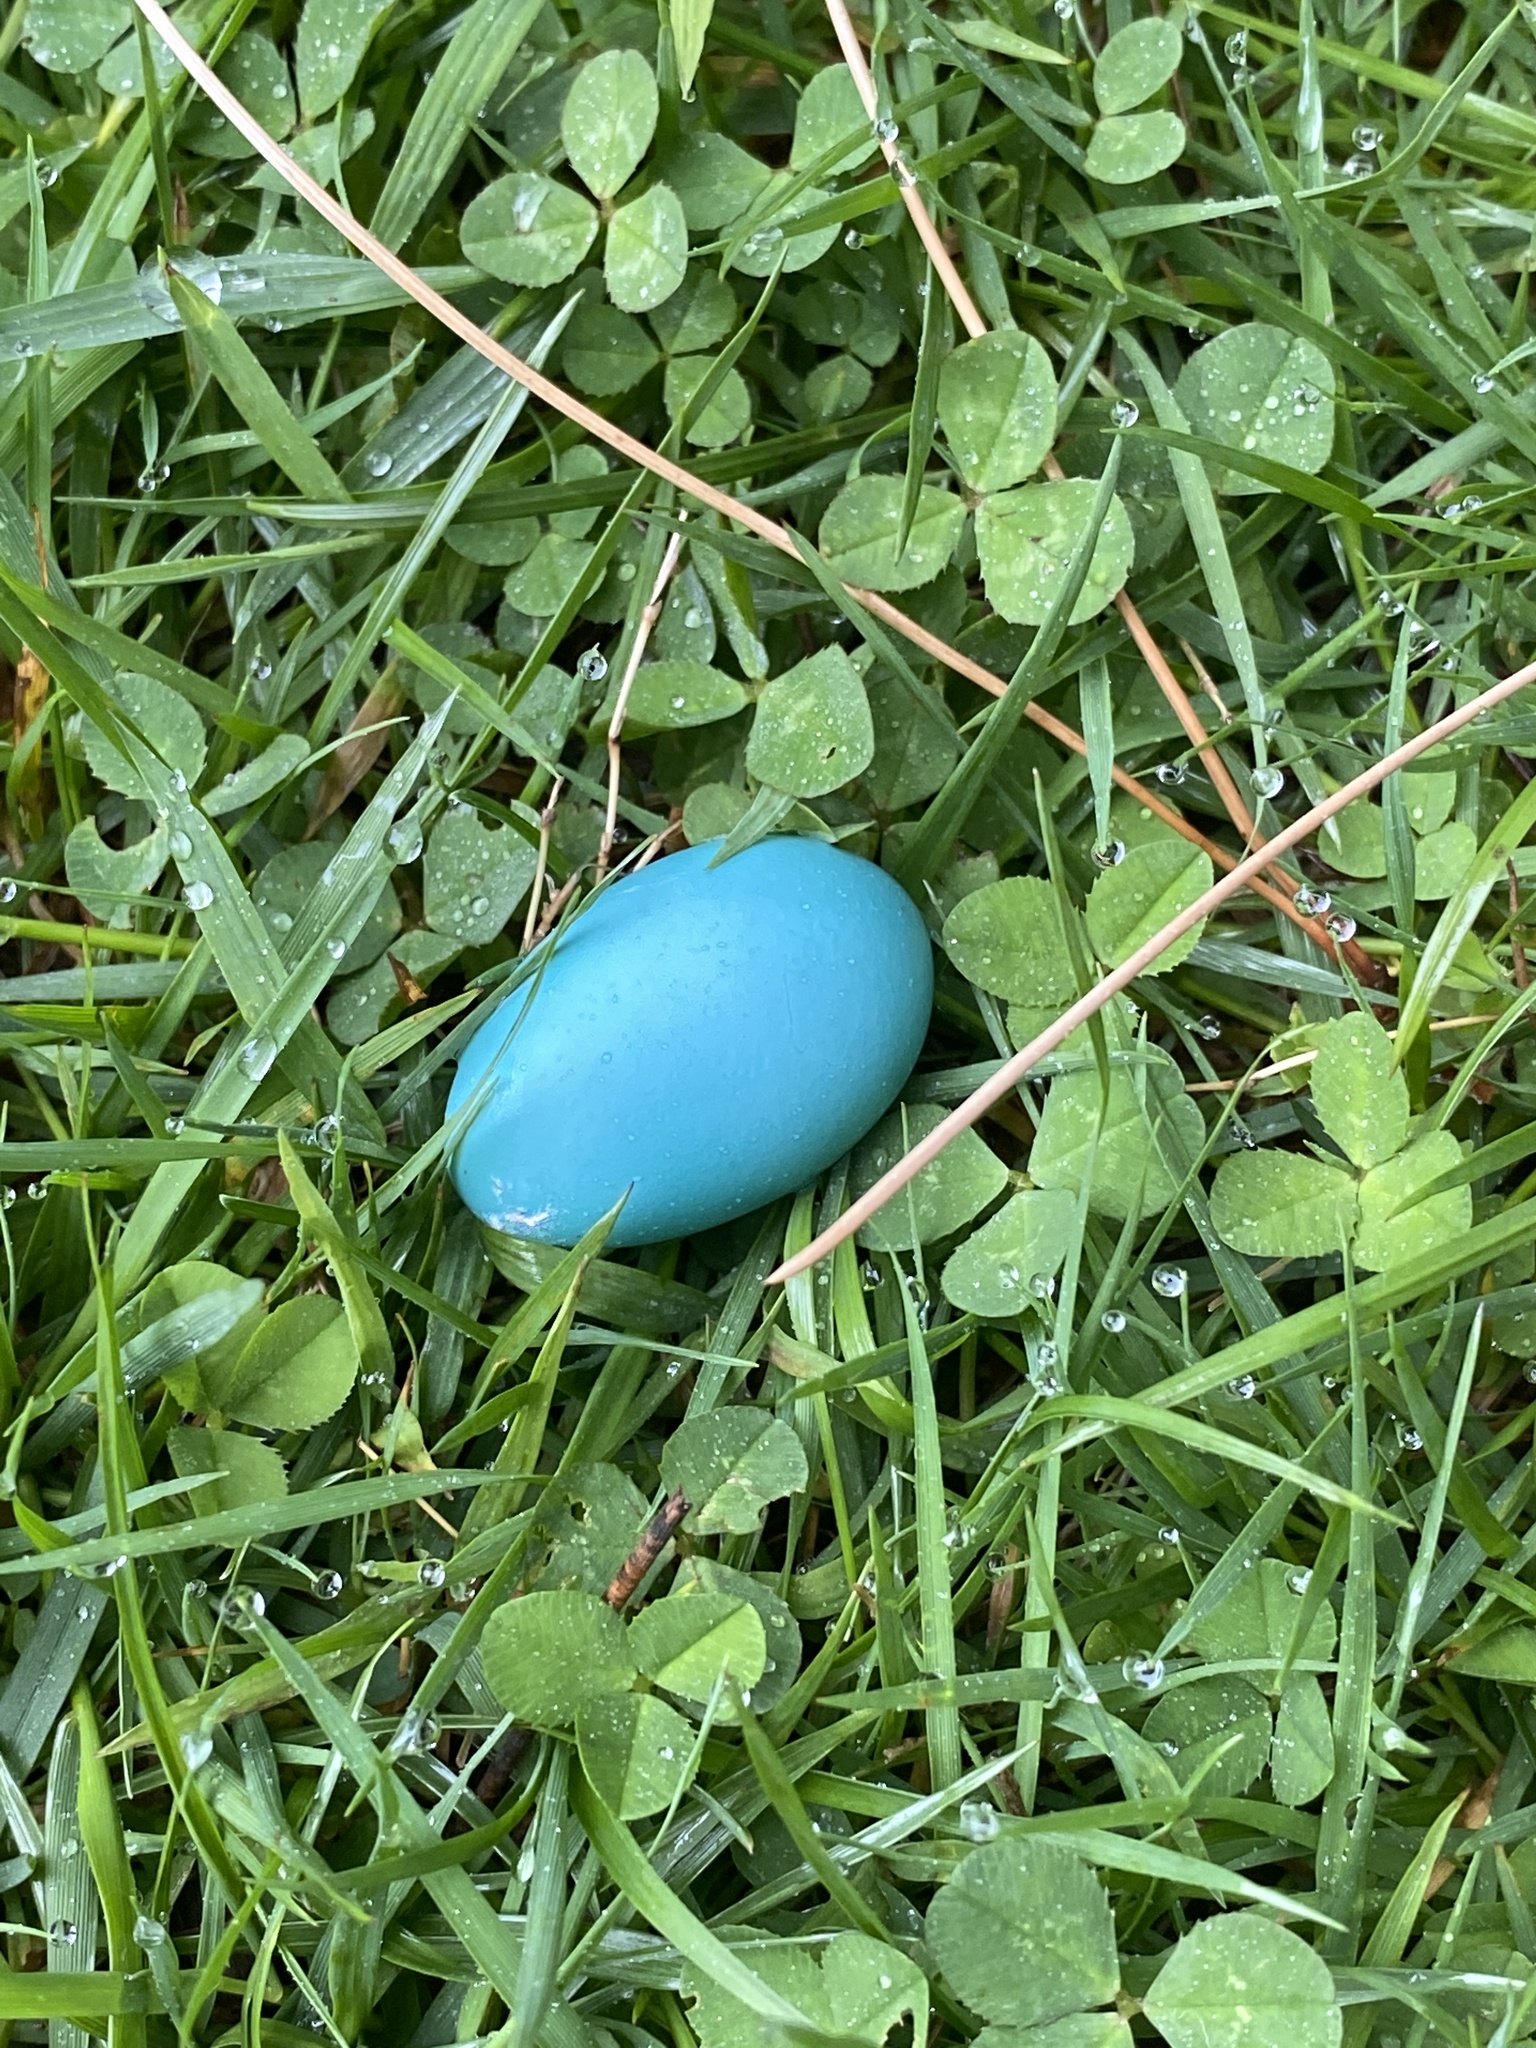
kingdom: Animalia
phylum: Chordata
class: Aves
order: Passeriformes
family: Turdidae
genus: Turdus
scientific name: Turdus migratorius
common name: American robin
